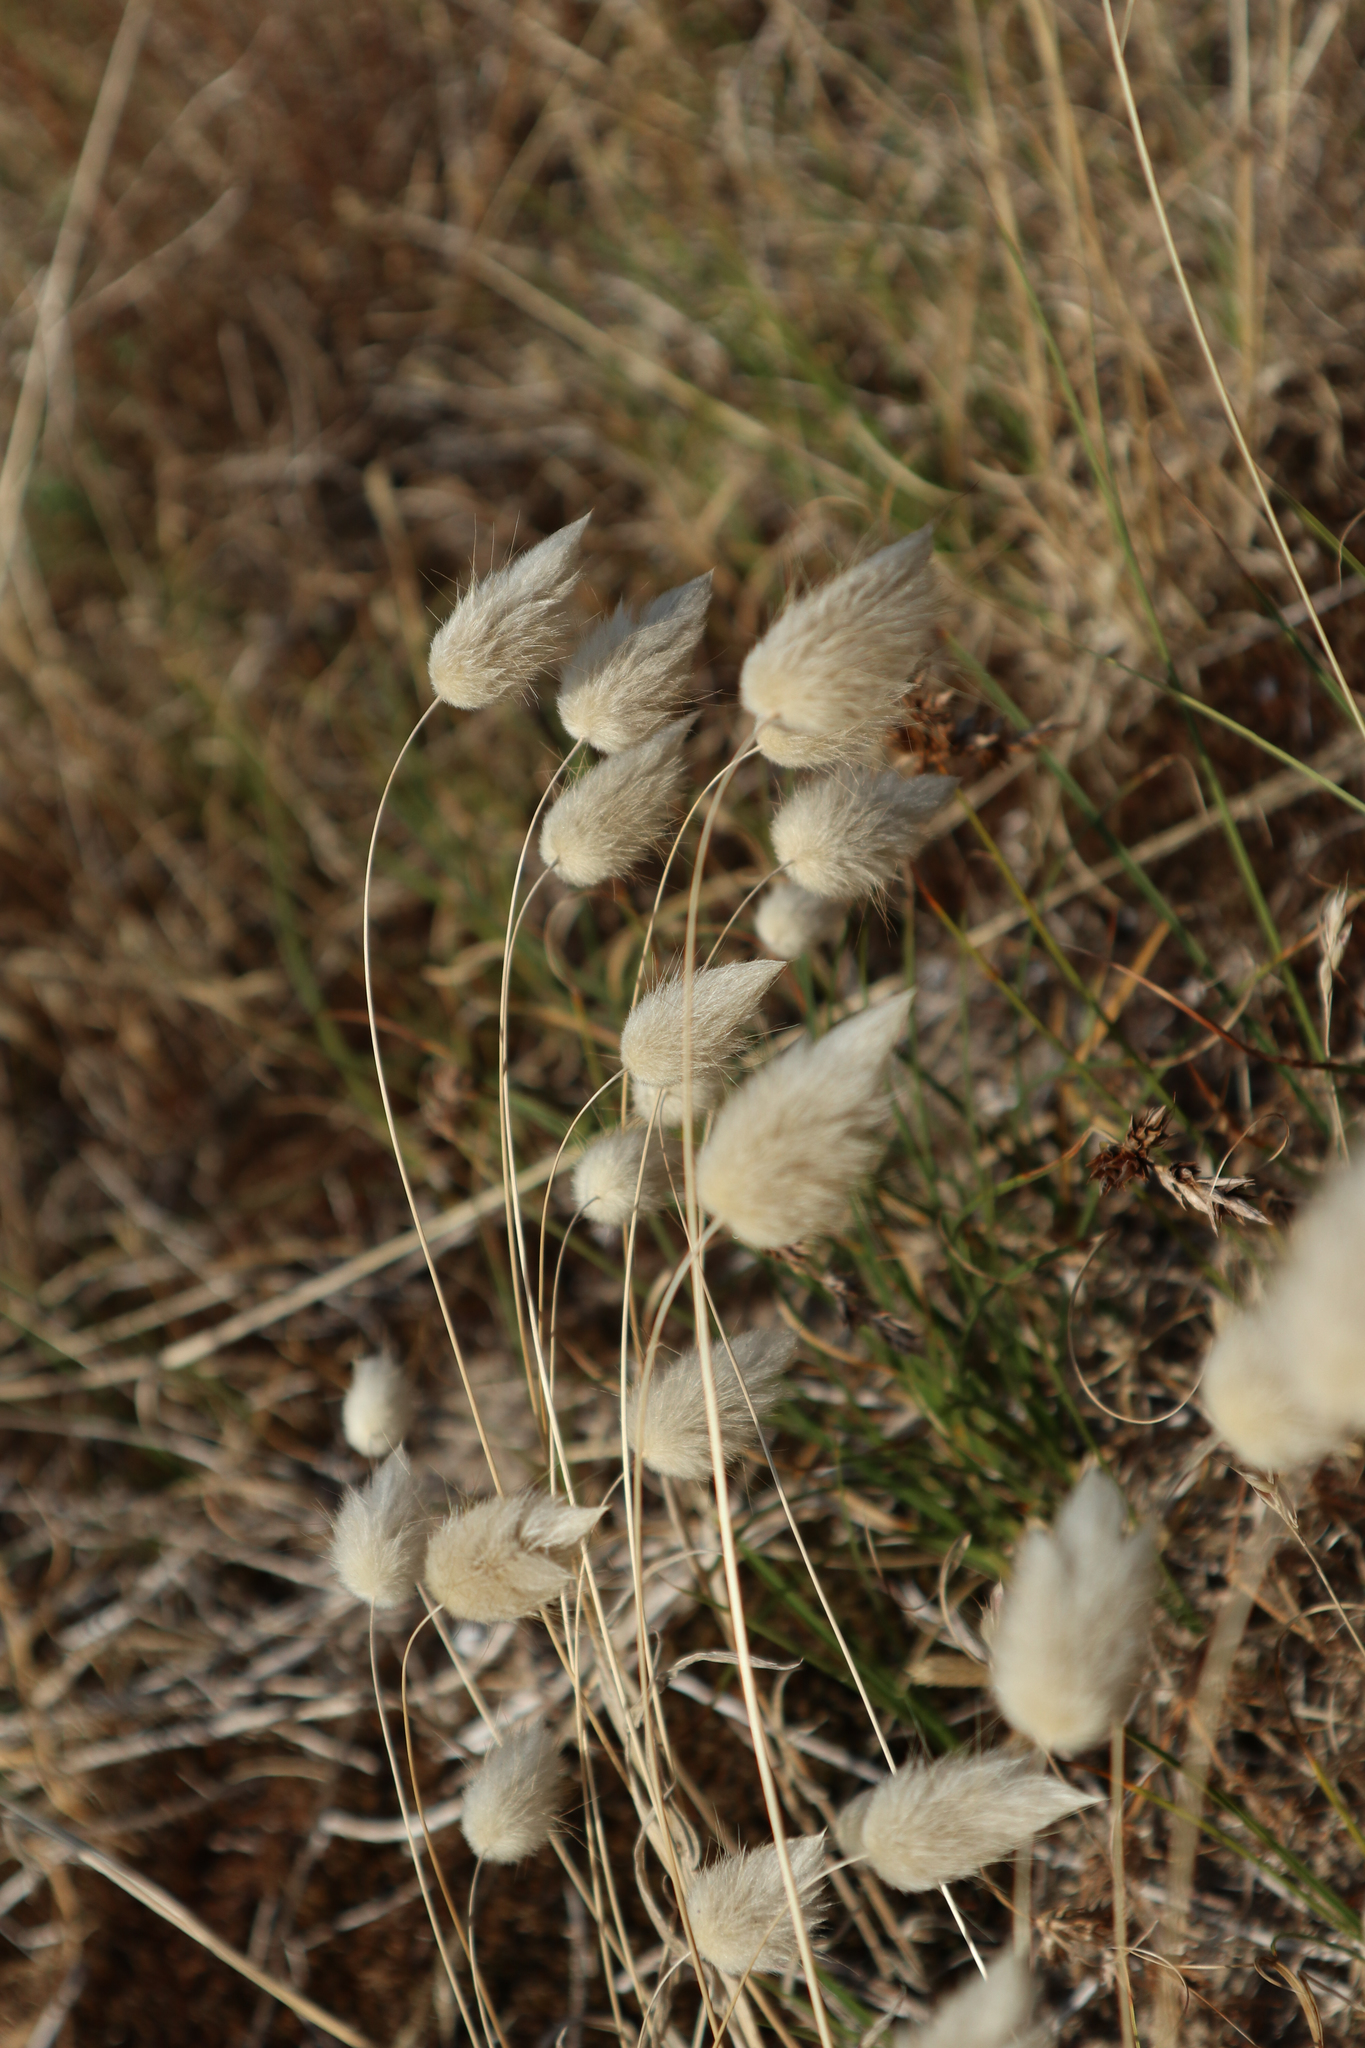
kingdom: Plantae
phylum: Tracheophyta
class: Liliopsida
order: Poales
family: Poaceae
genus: Lagurus
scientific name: Lagurus ovatus
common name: Hare's-tail
